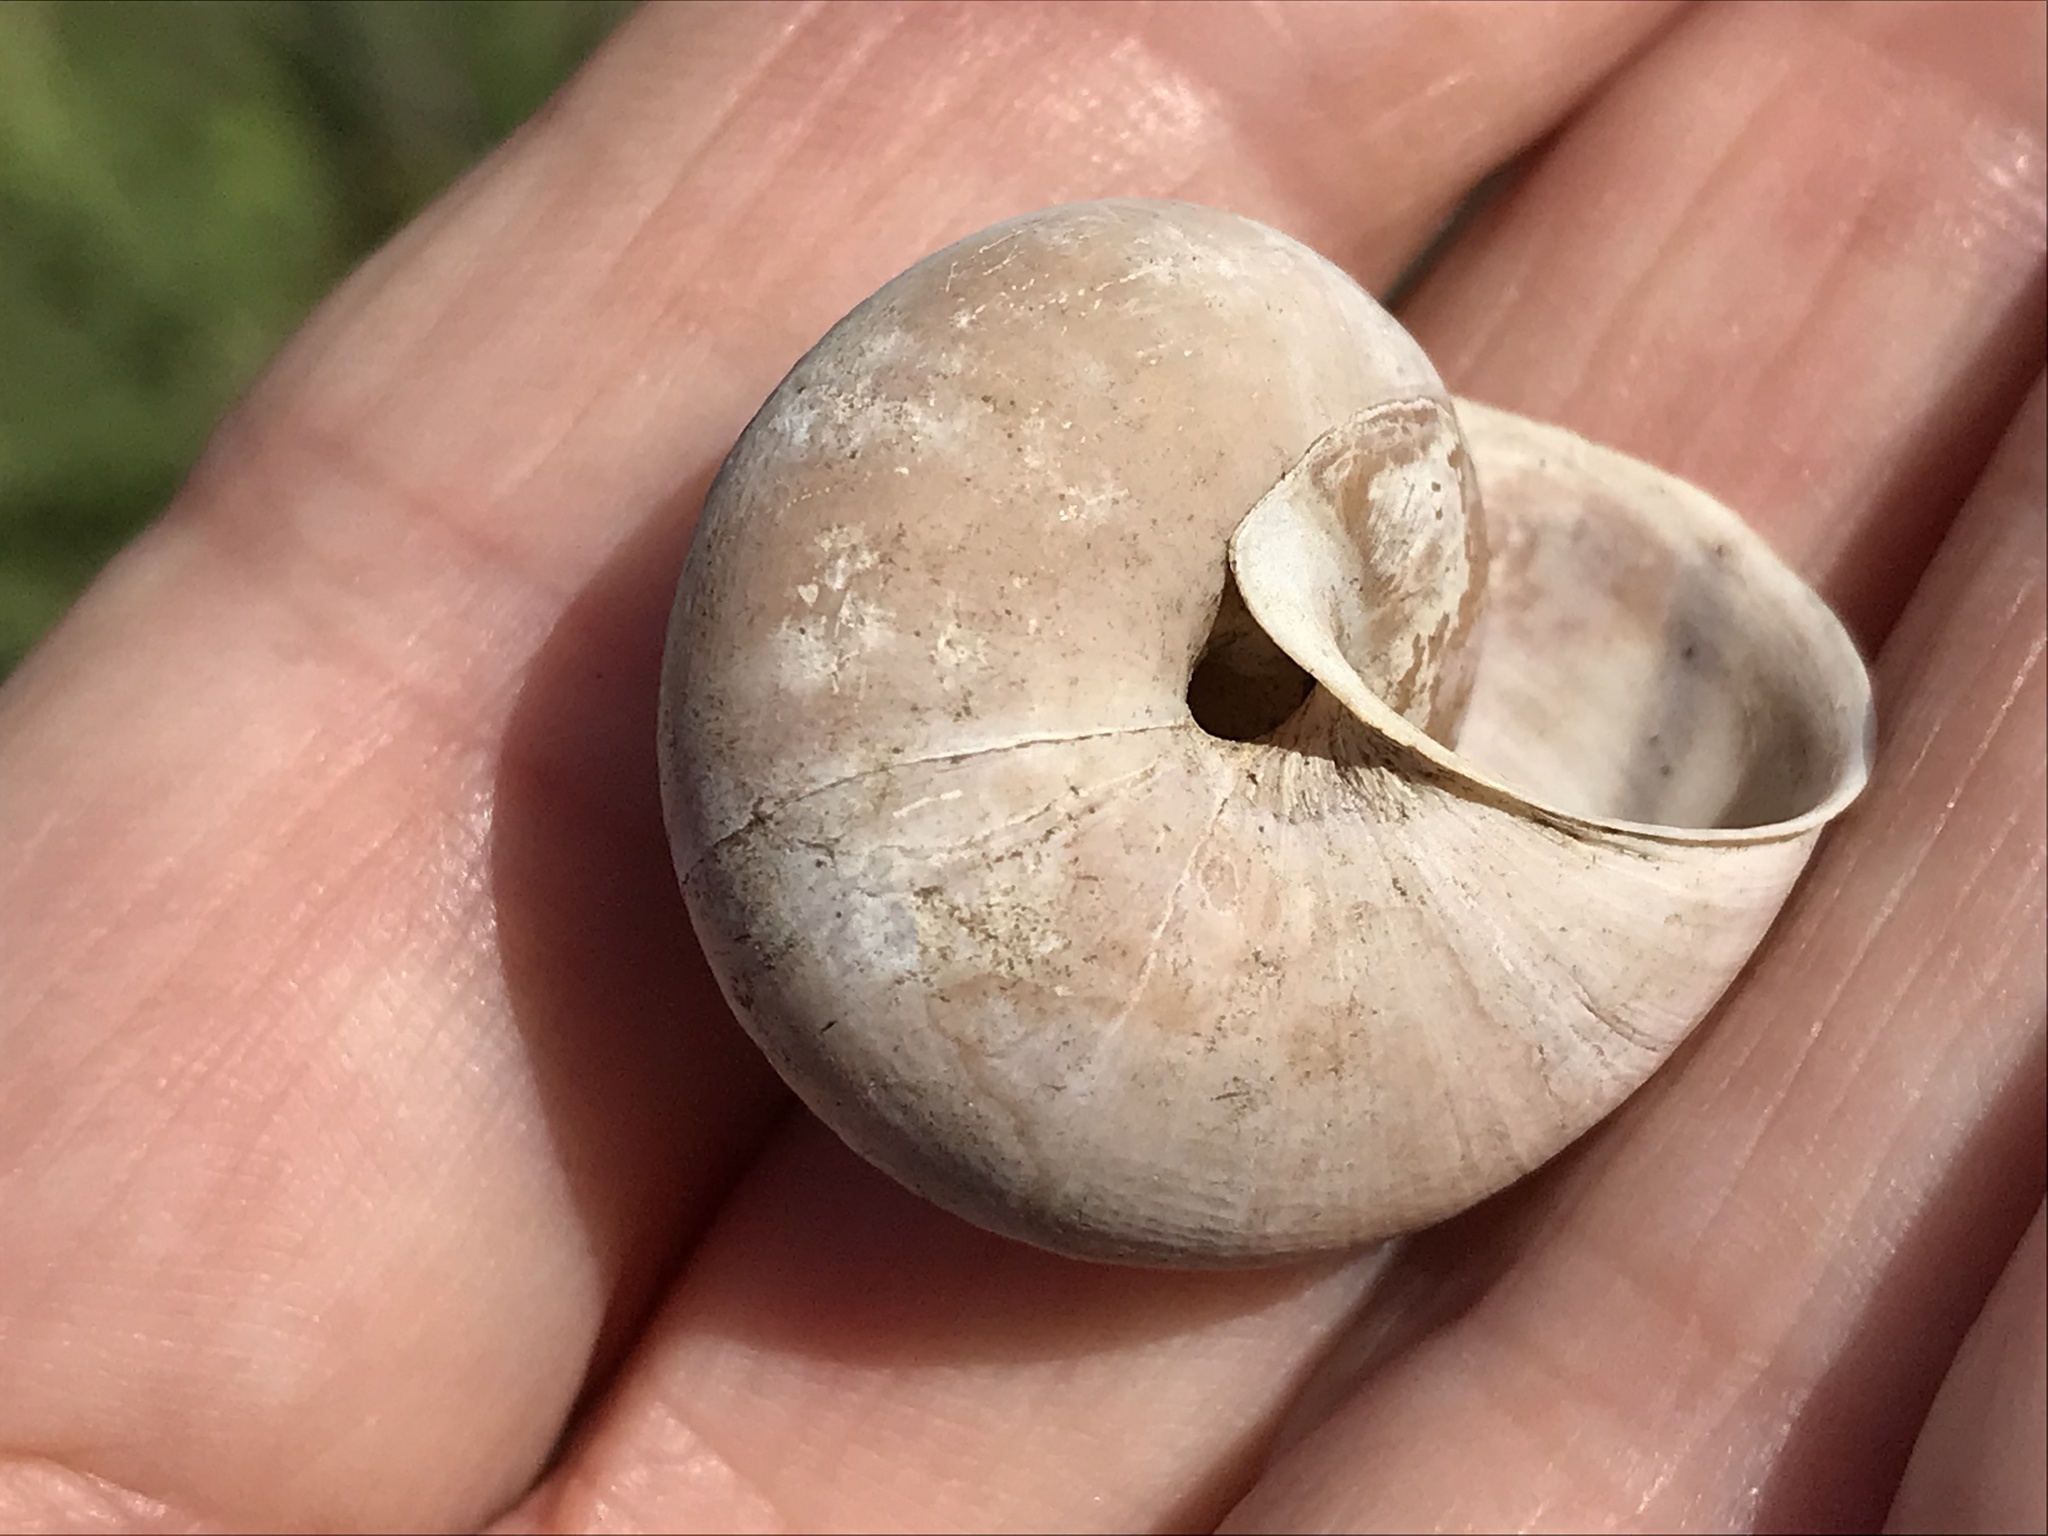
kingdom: Animalia
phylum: Mollusca
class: Gastropoda
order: Stylommatophora
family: Xanthonychidae
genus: Helminthoglypta
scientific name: Helminthoglypta umbilicata
